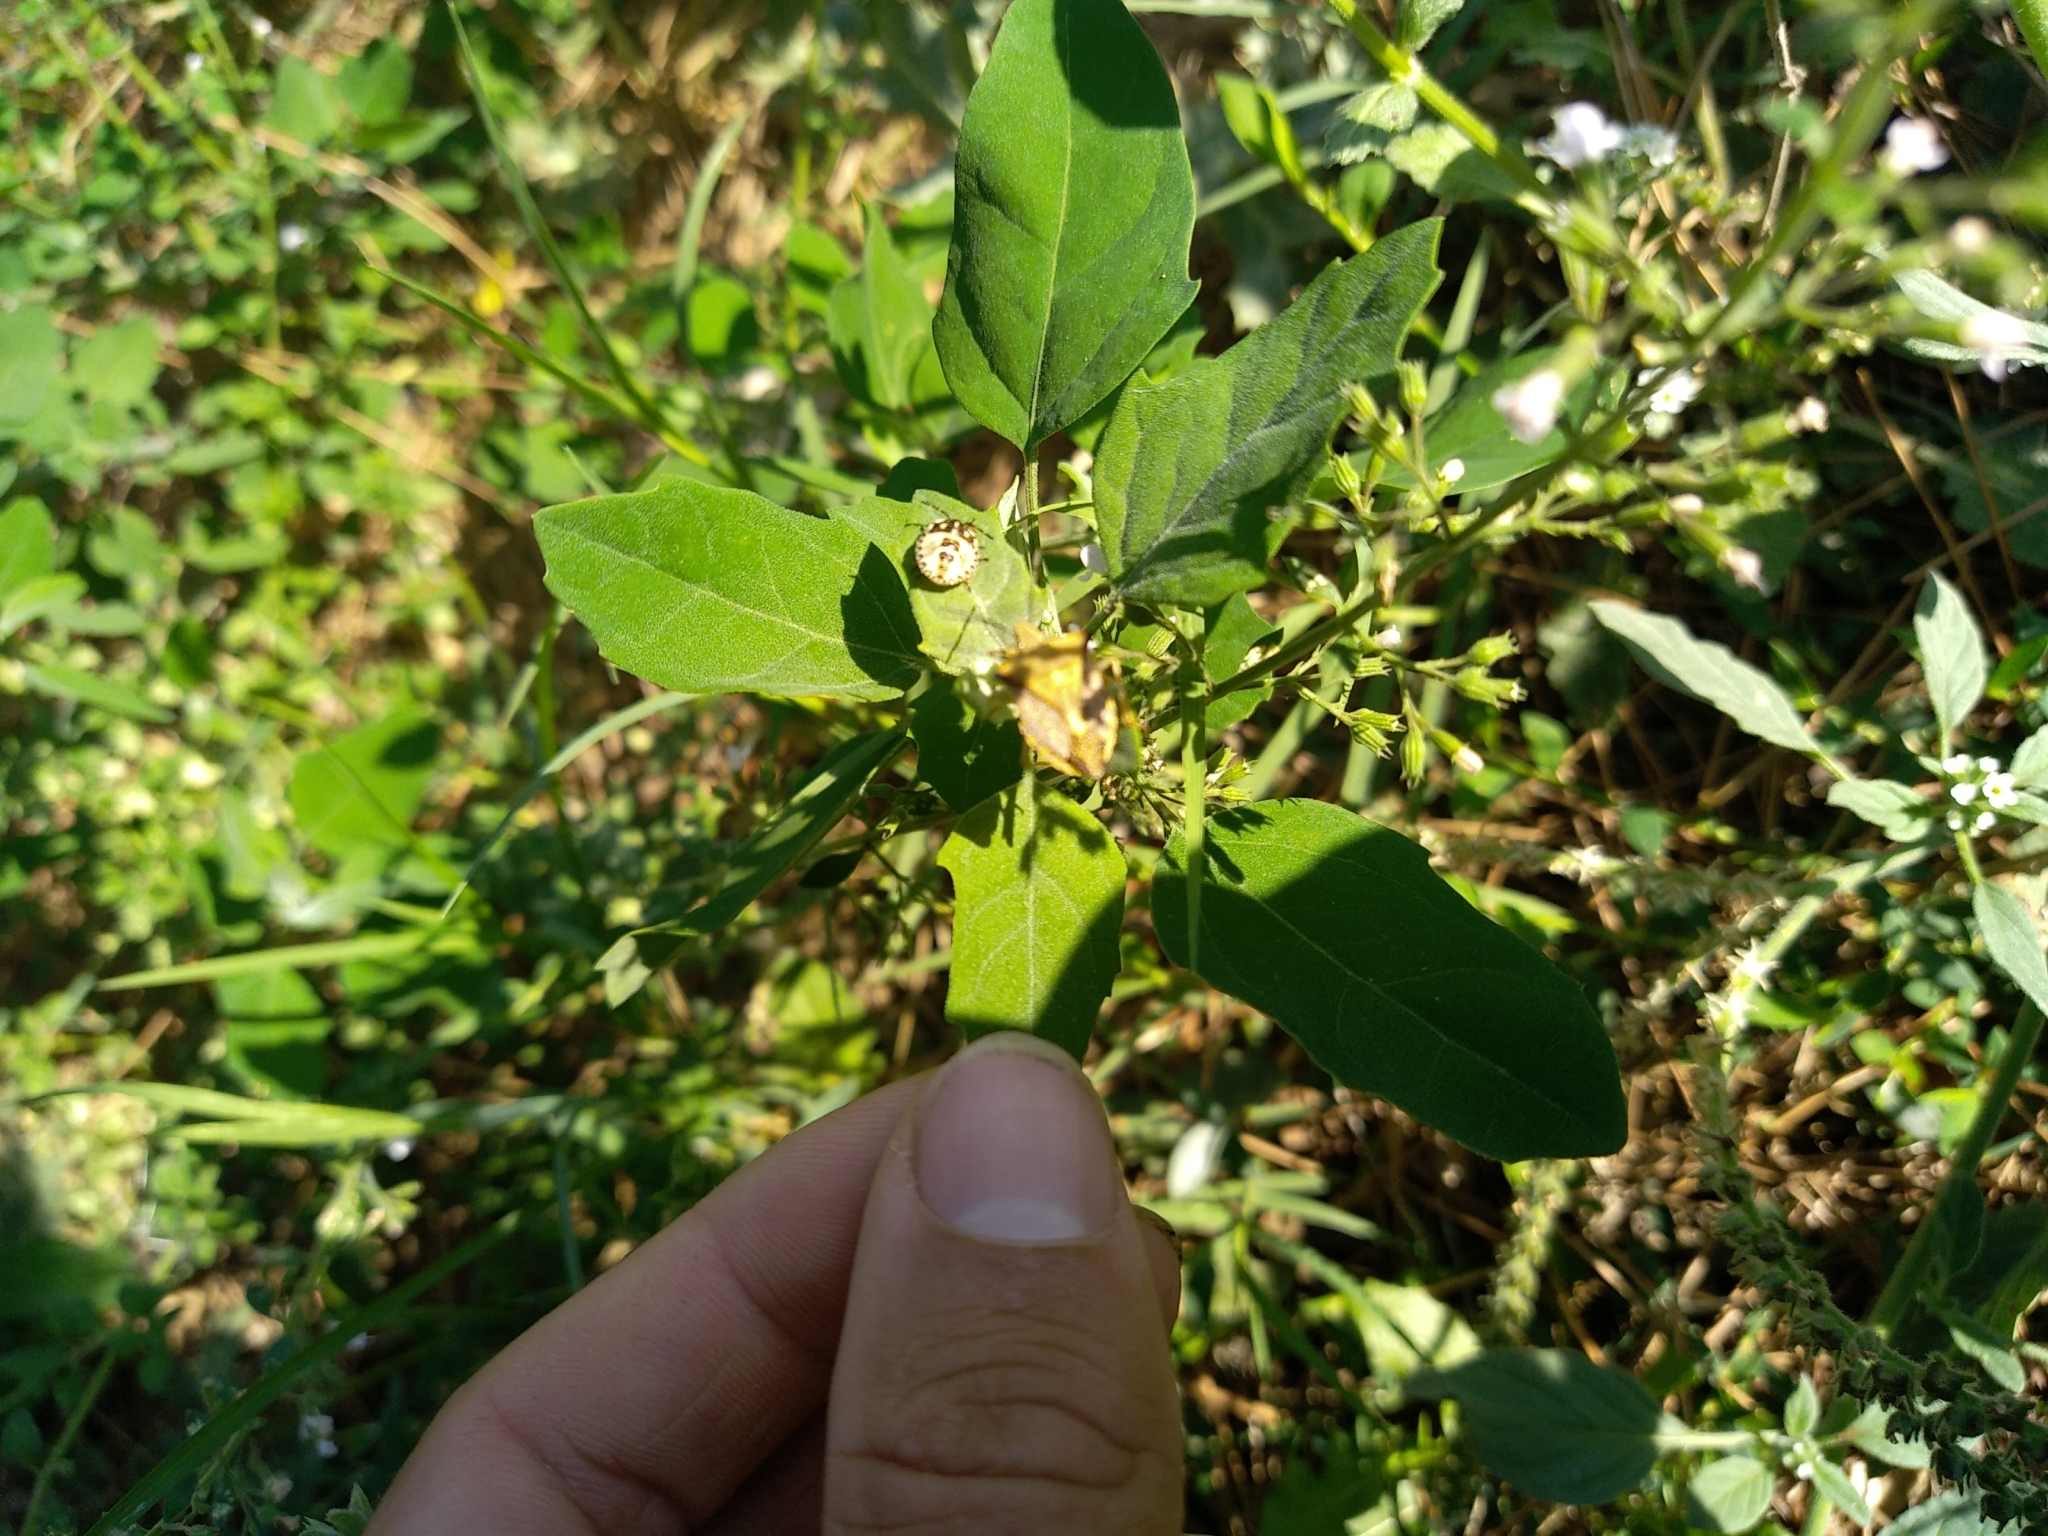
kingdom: Animalia
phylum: Arthropoda
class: Insecta
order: Hemiptera
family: Pentatomidae
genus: Carpocoris
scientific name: Carpocoris mediterraneus
